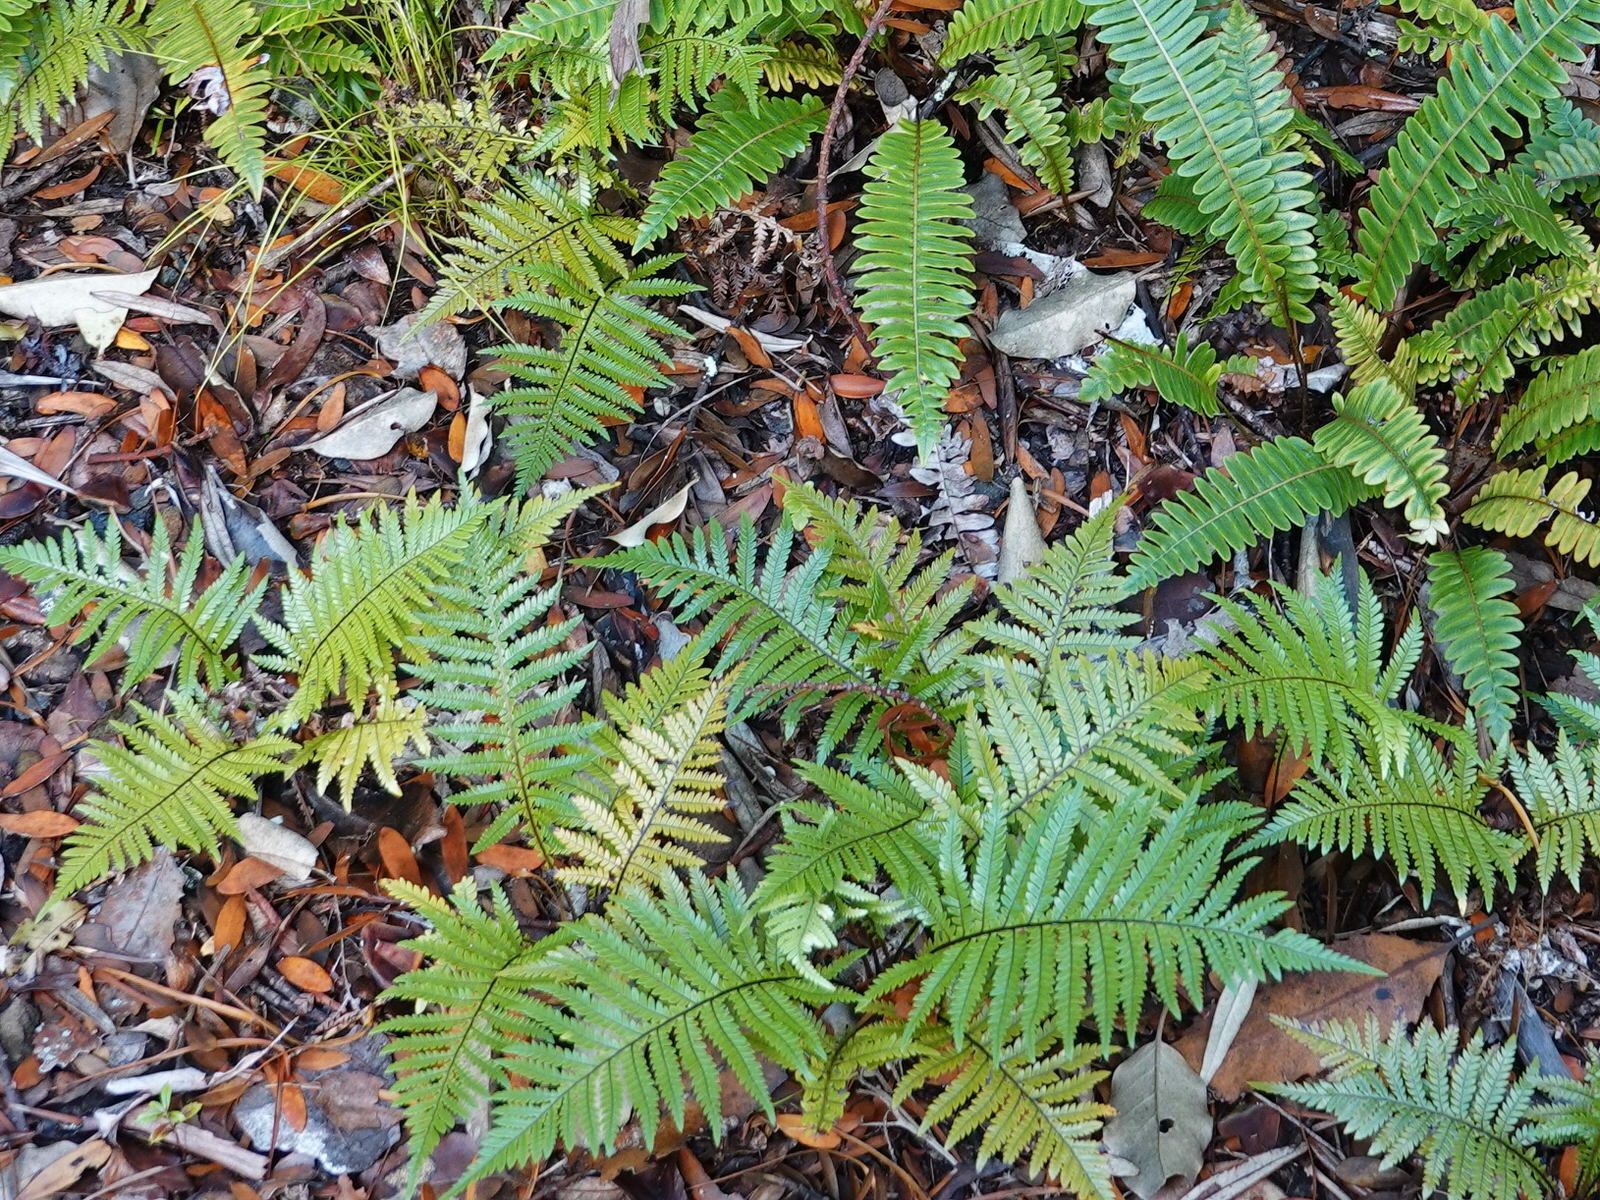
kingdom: Plantae
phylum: Tracheophyta
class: Polypodiopsida
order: Polypodiales
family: Blechnaceae
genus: Diploblechnum
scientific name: Diploblechnum fraseri
